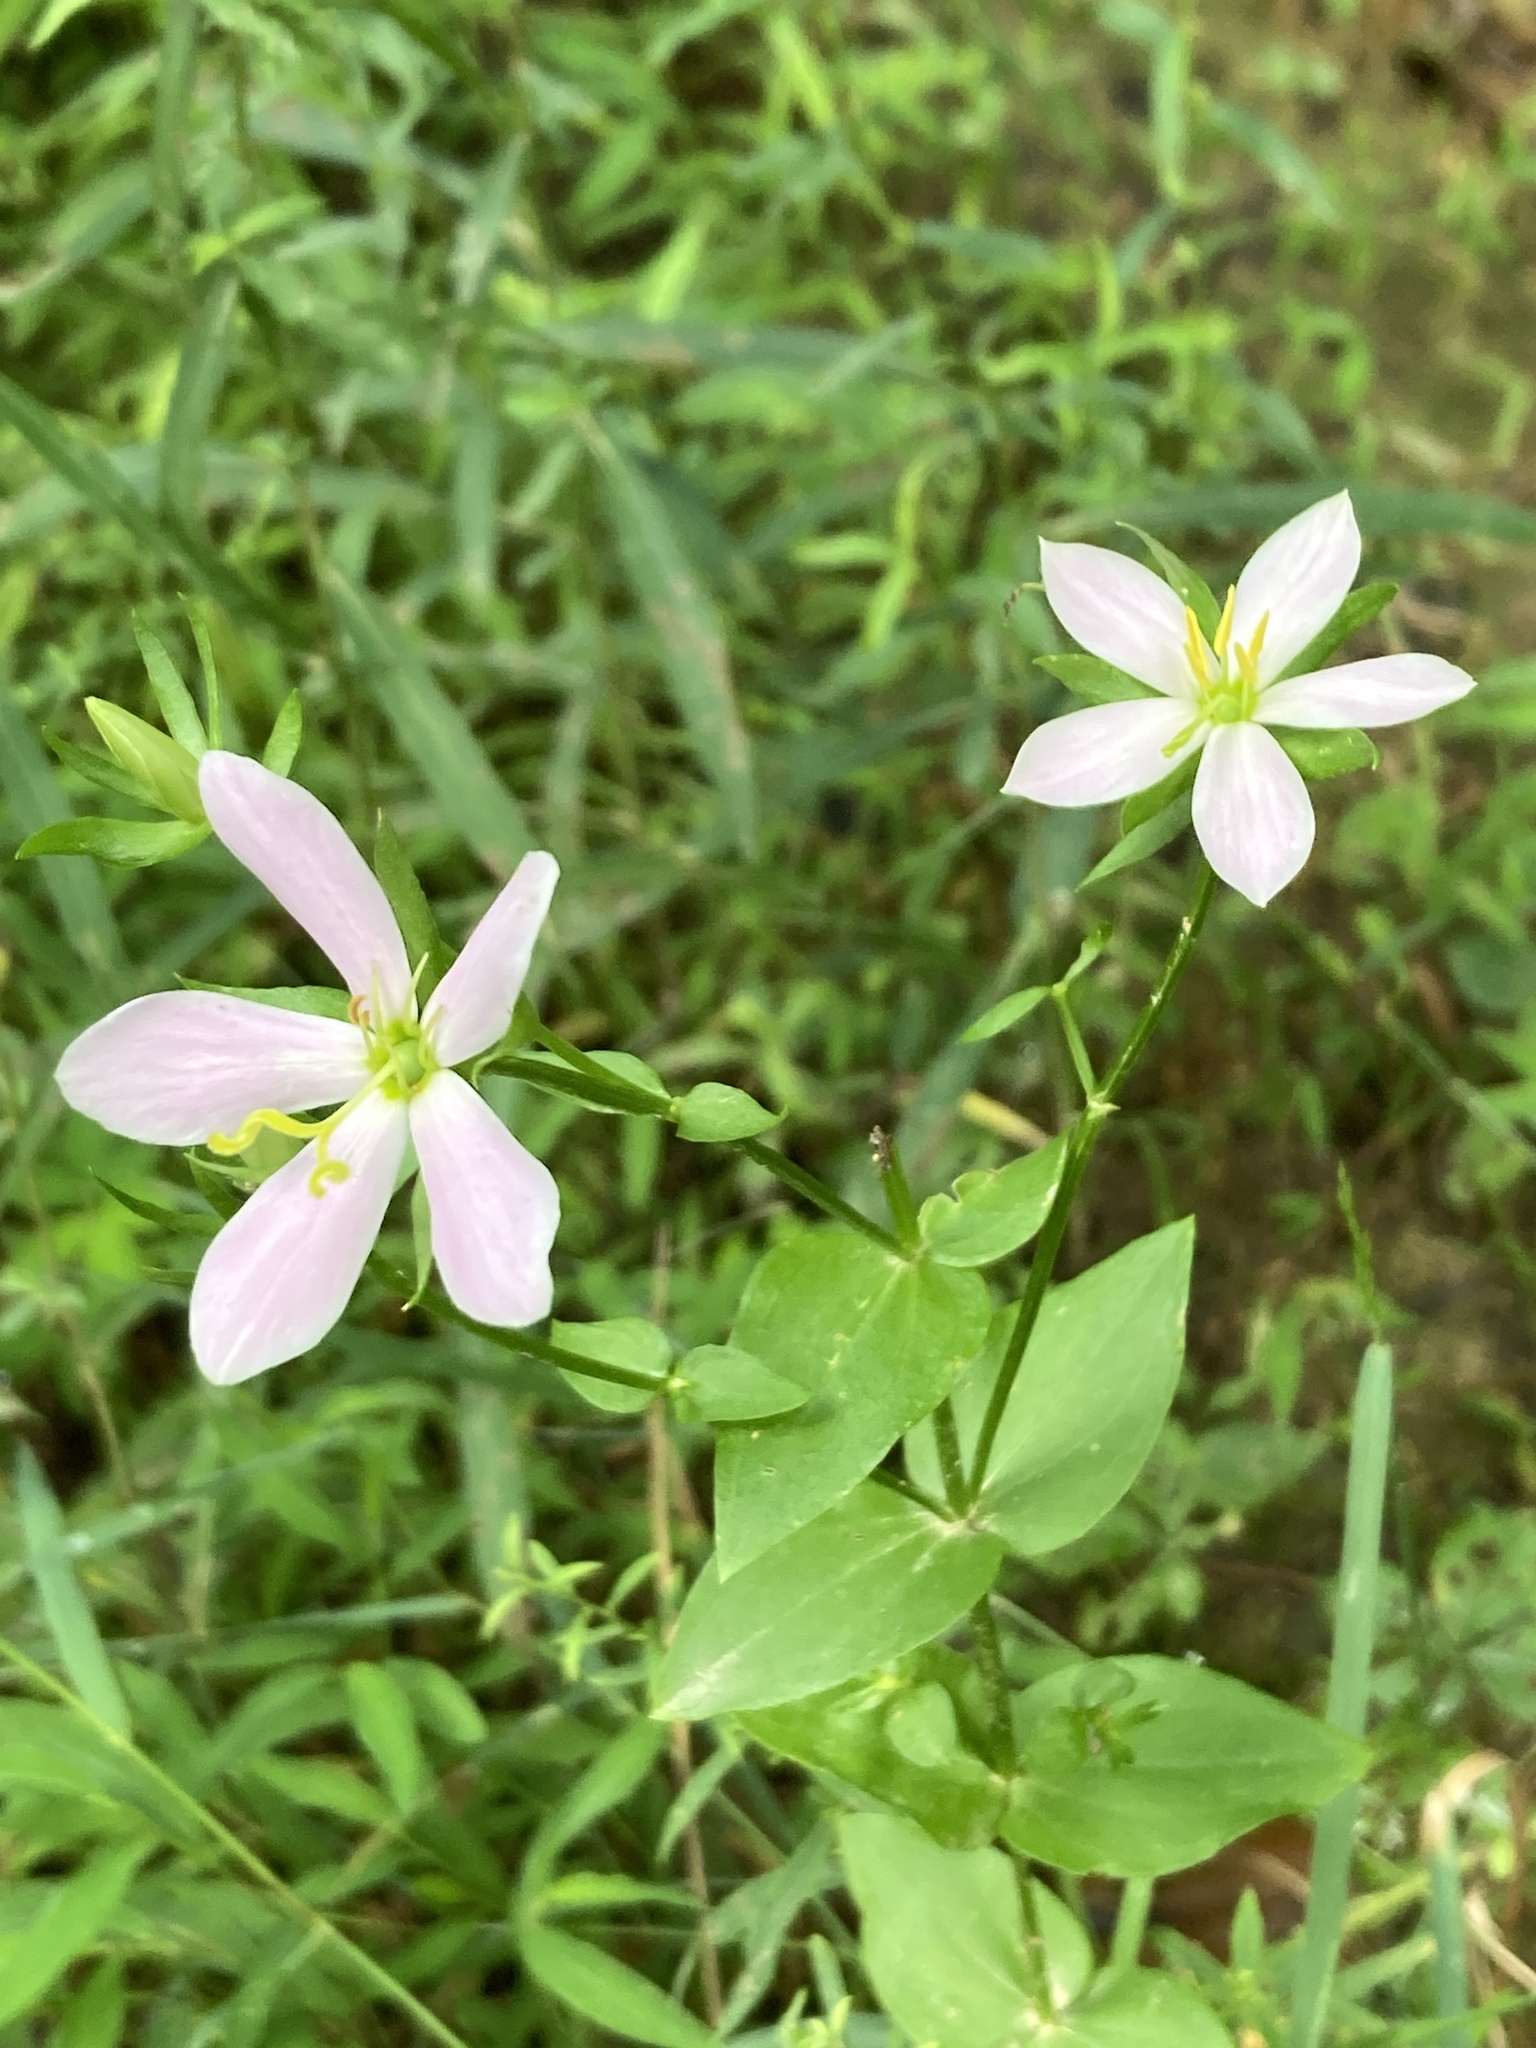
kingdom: Plantae
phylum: Tracheophyta
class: Magnoliopsida
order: Gentianales
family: Gentianaceae
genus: Sabatia
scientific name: Sabatia angularis
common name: Rose-pink
